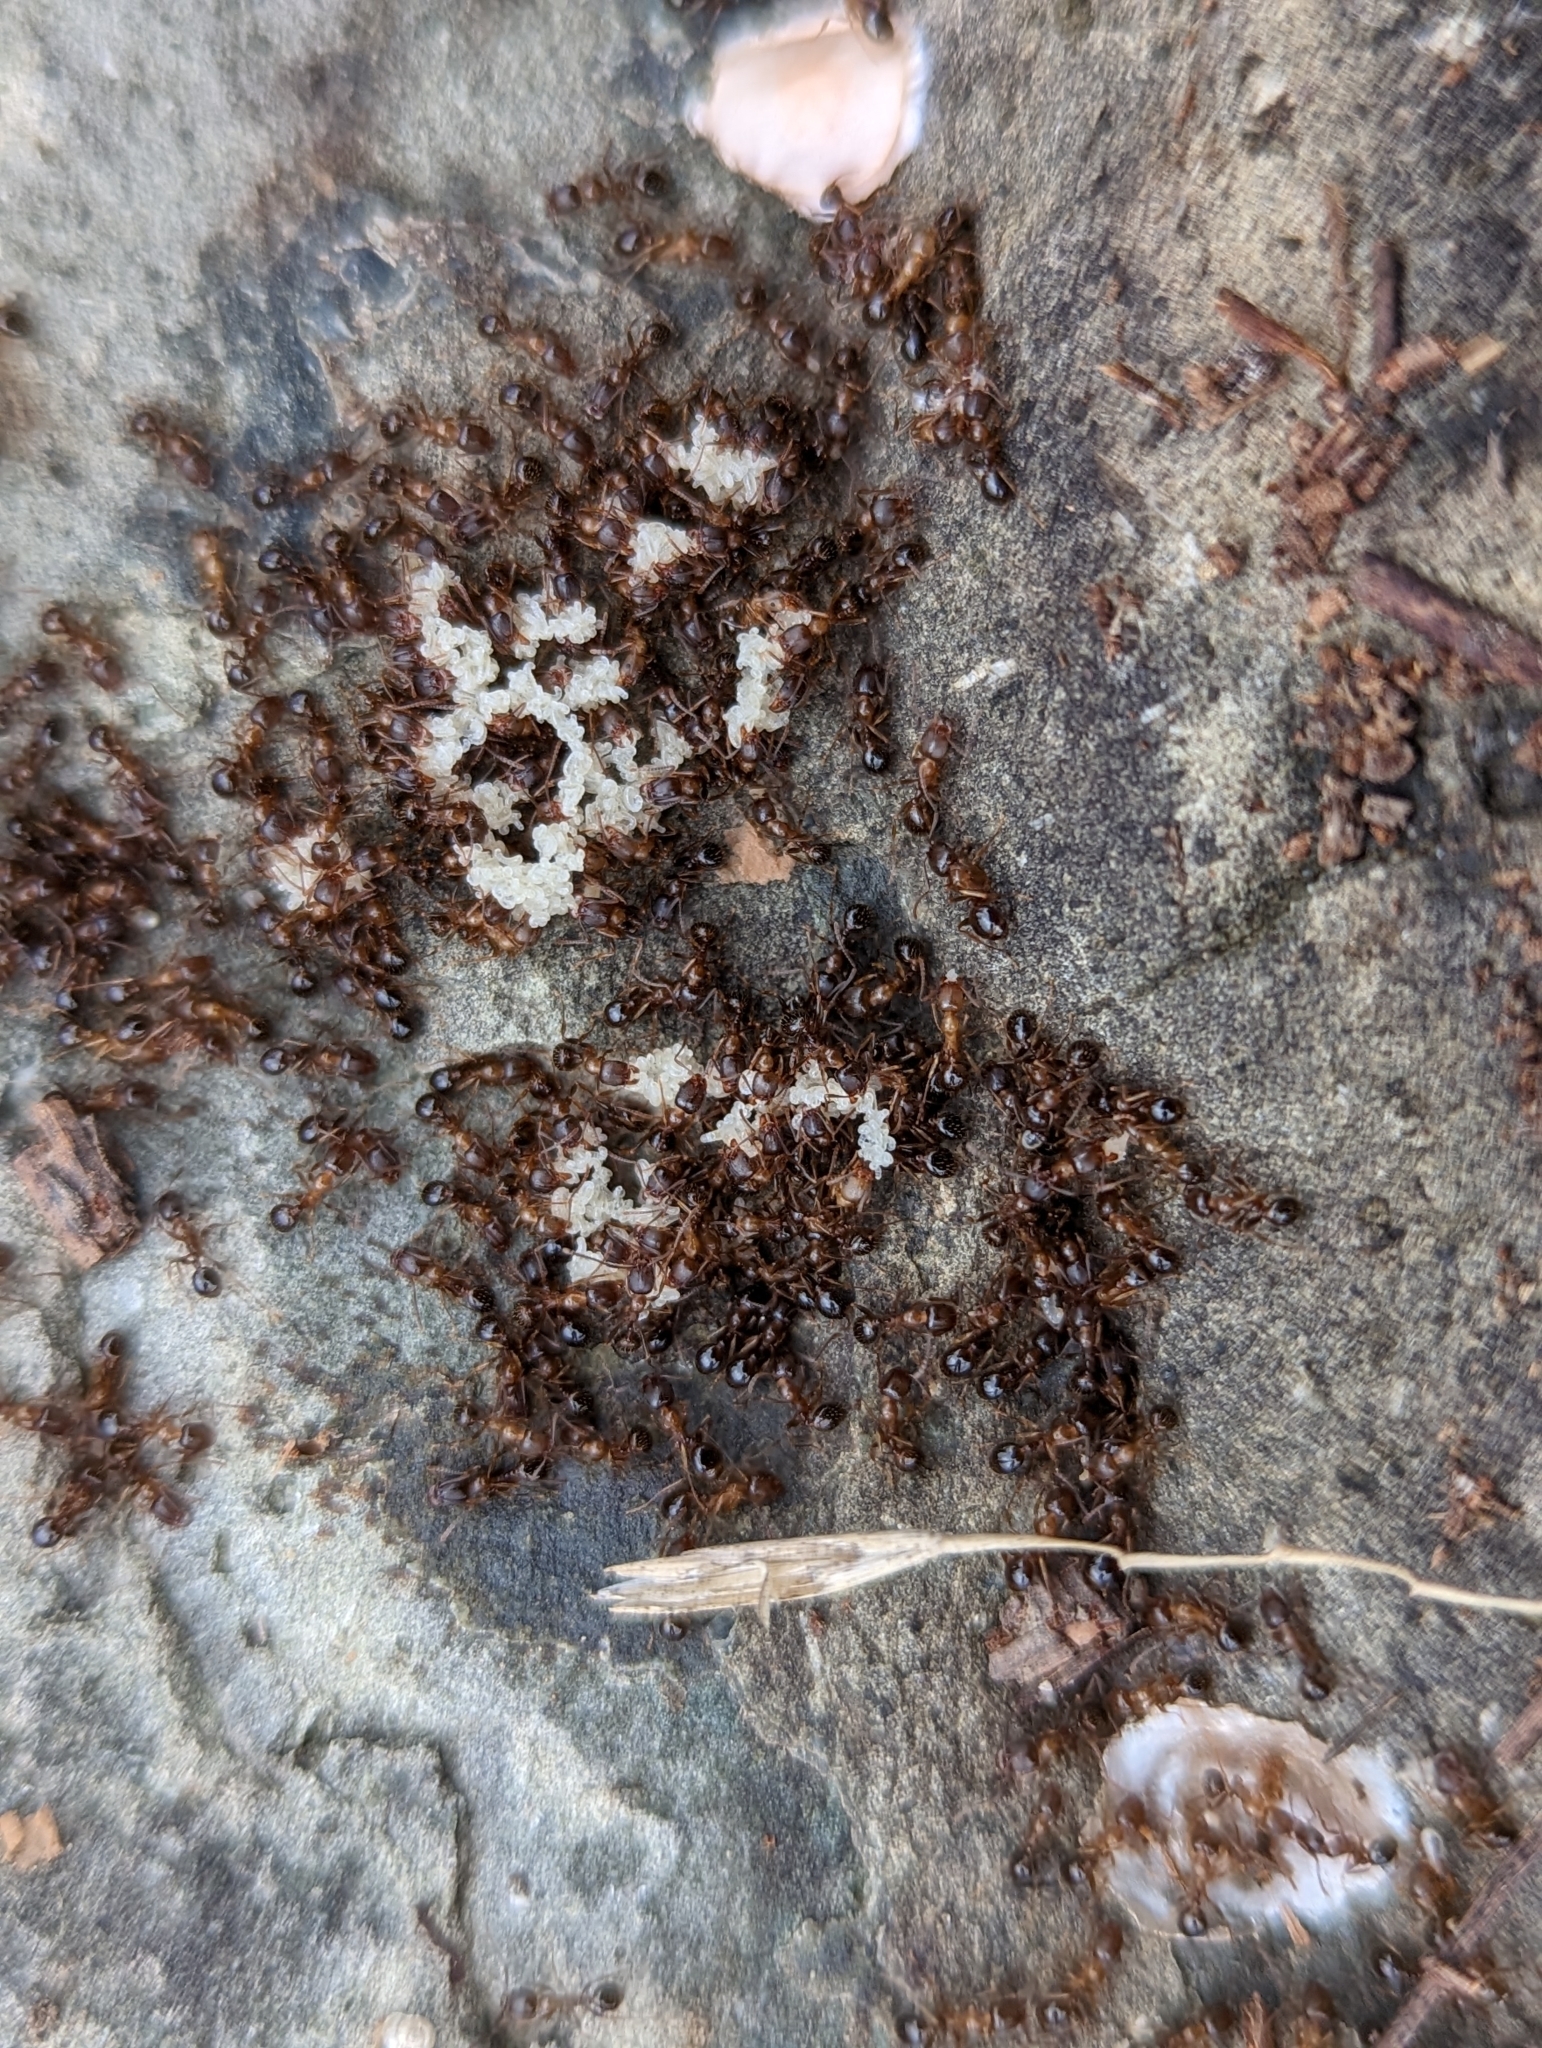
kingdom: Animalia
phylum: Arthropoda
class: Insecta
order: Hymenoptera
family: Formicidae
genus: Aphaenogaster
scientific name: Aphaenogaster occidentalis
